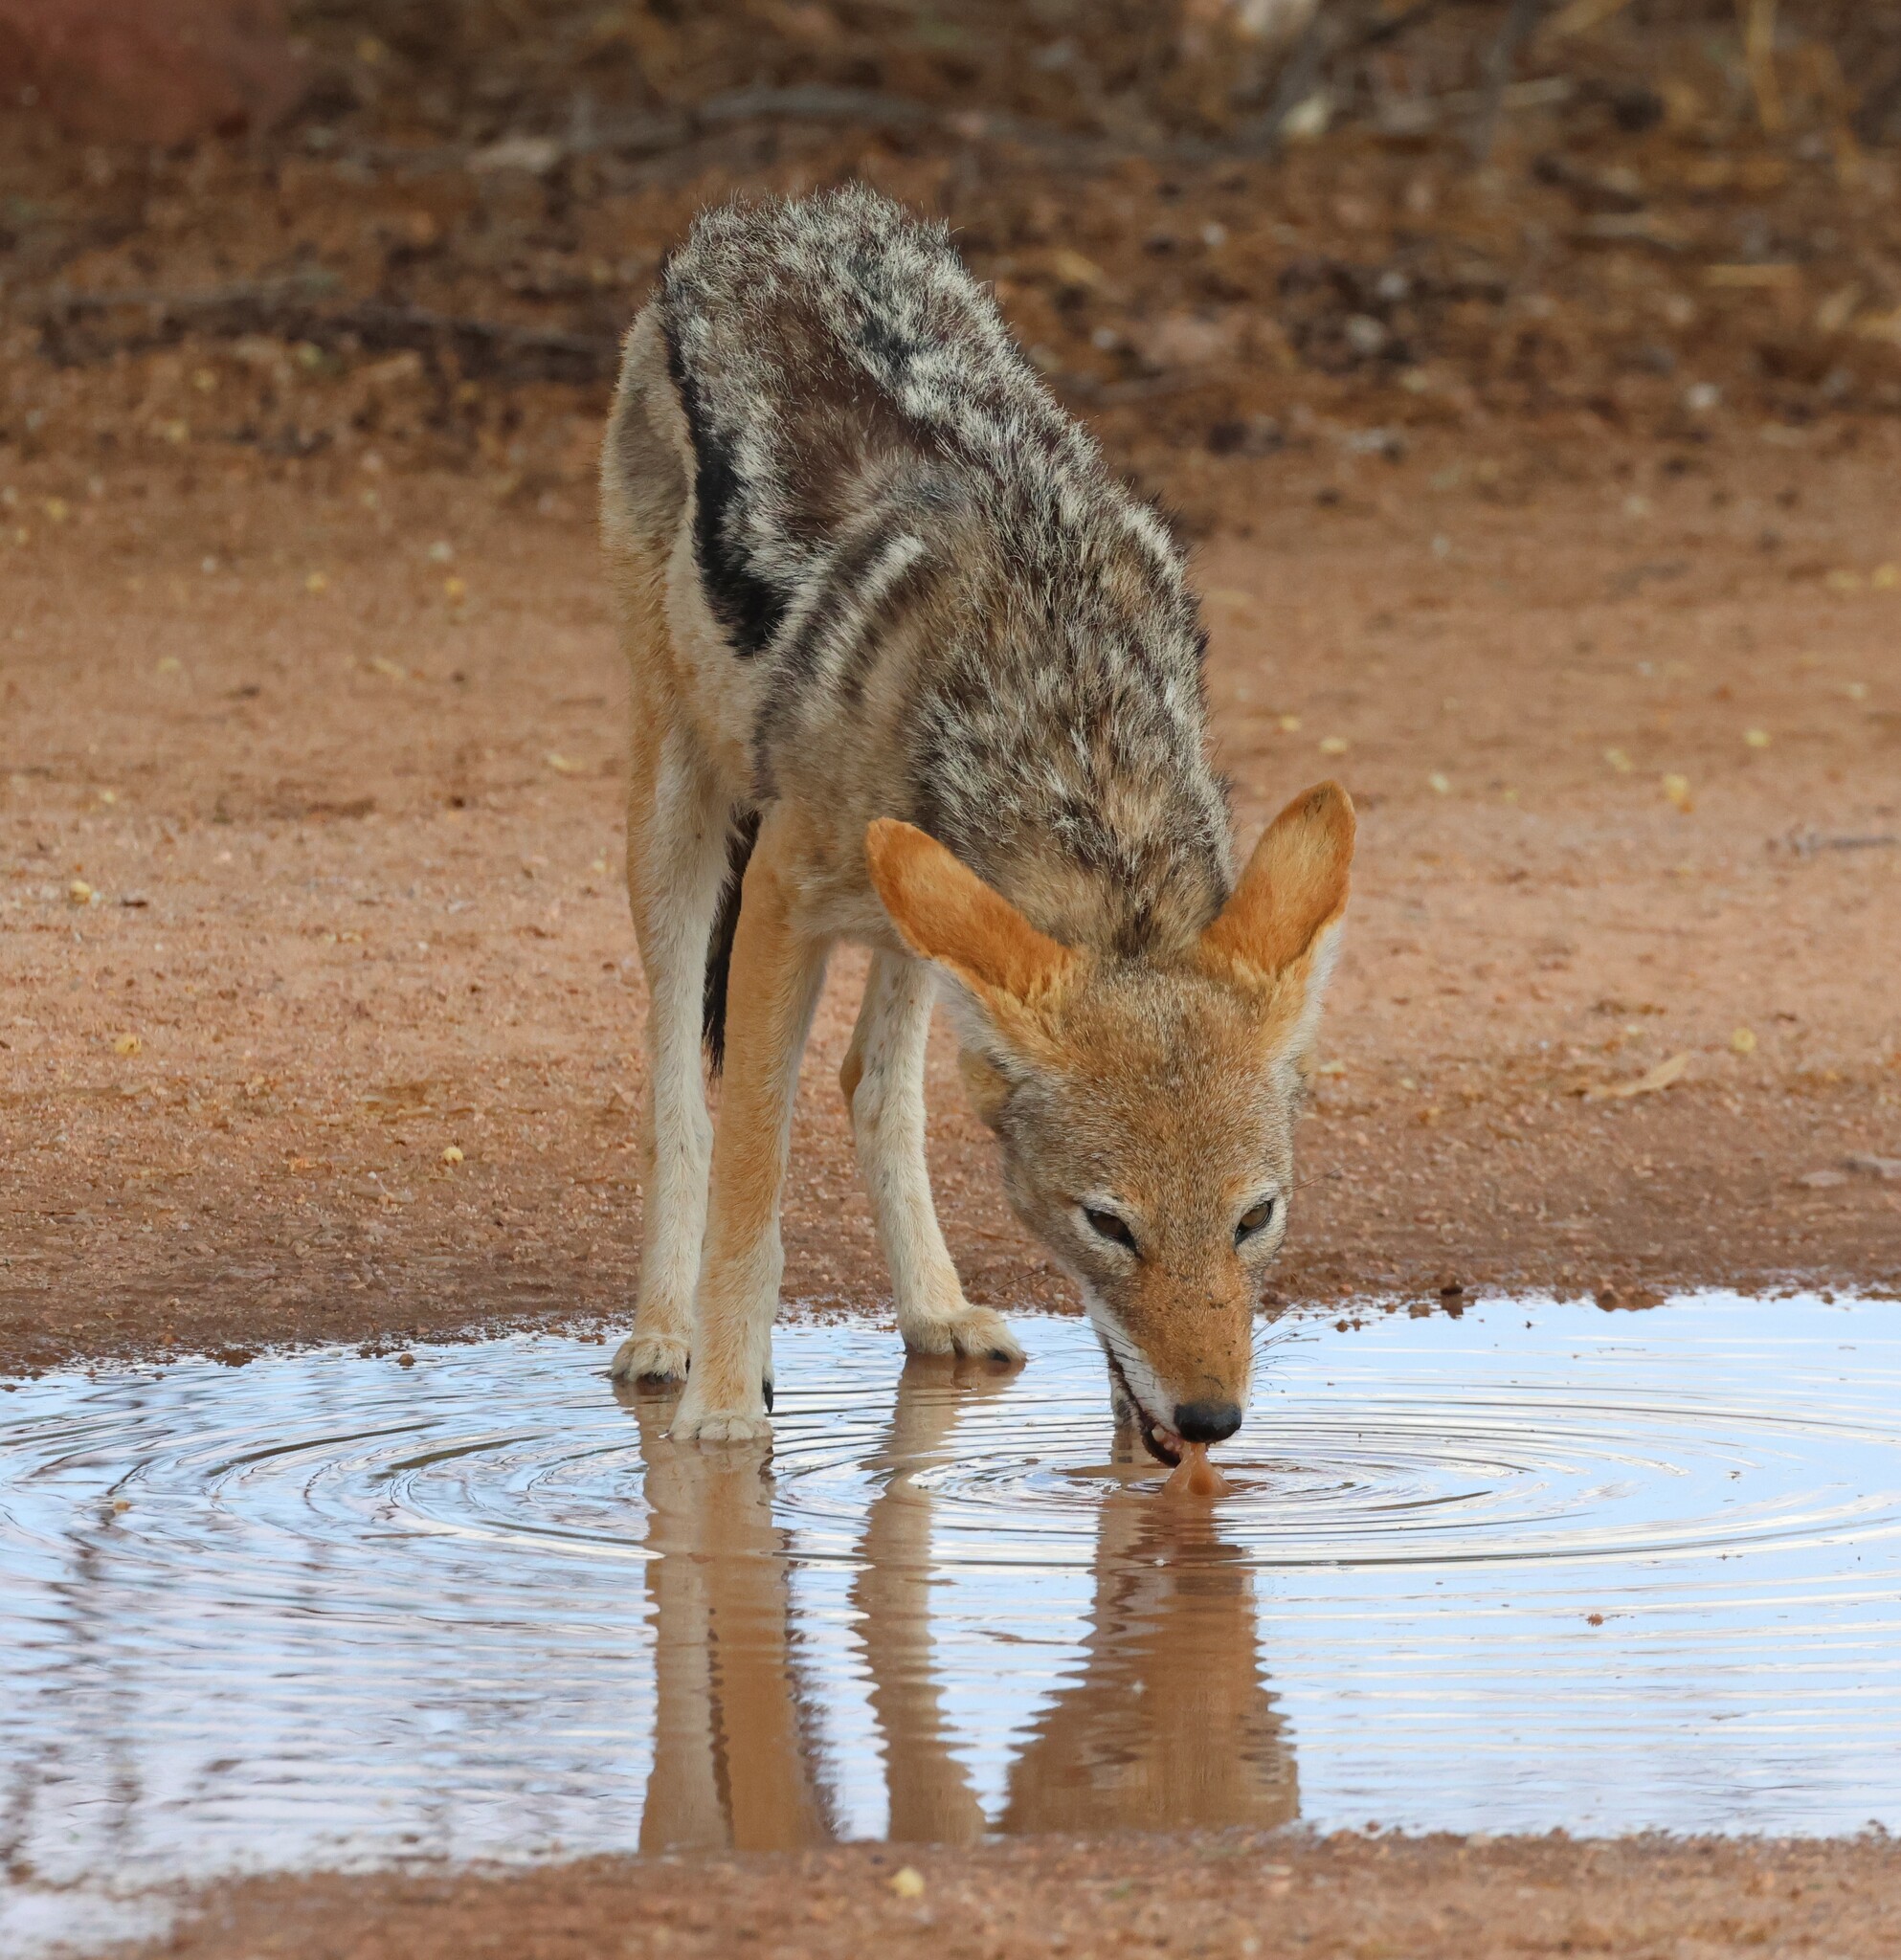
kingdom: Animalia
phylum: Chordata
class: Mammalia
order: Carnivora
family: Canidae
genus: Lupulella
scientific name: Lupulella
